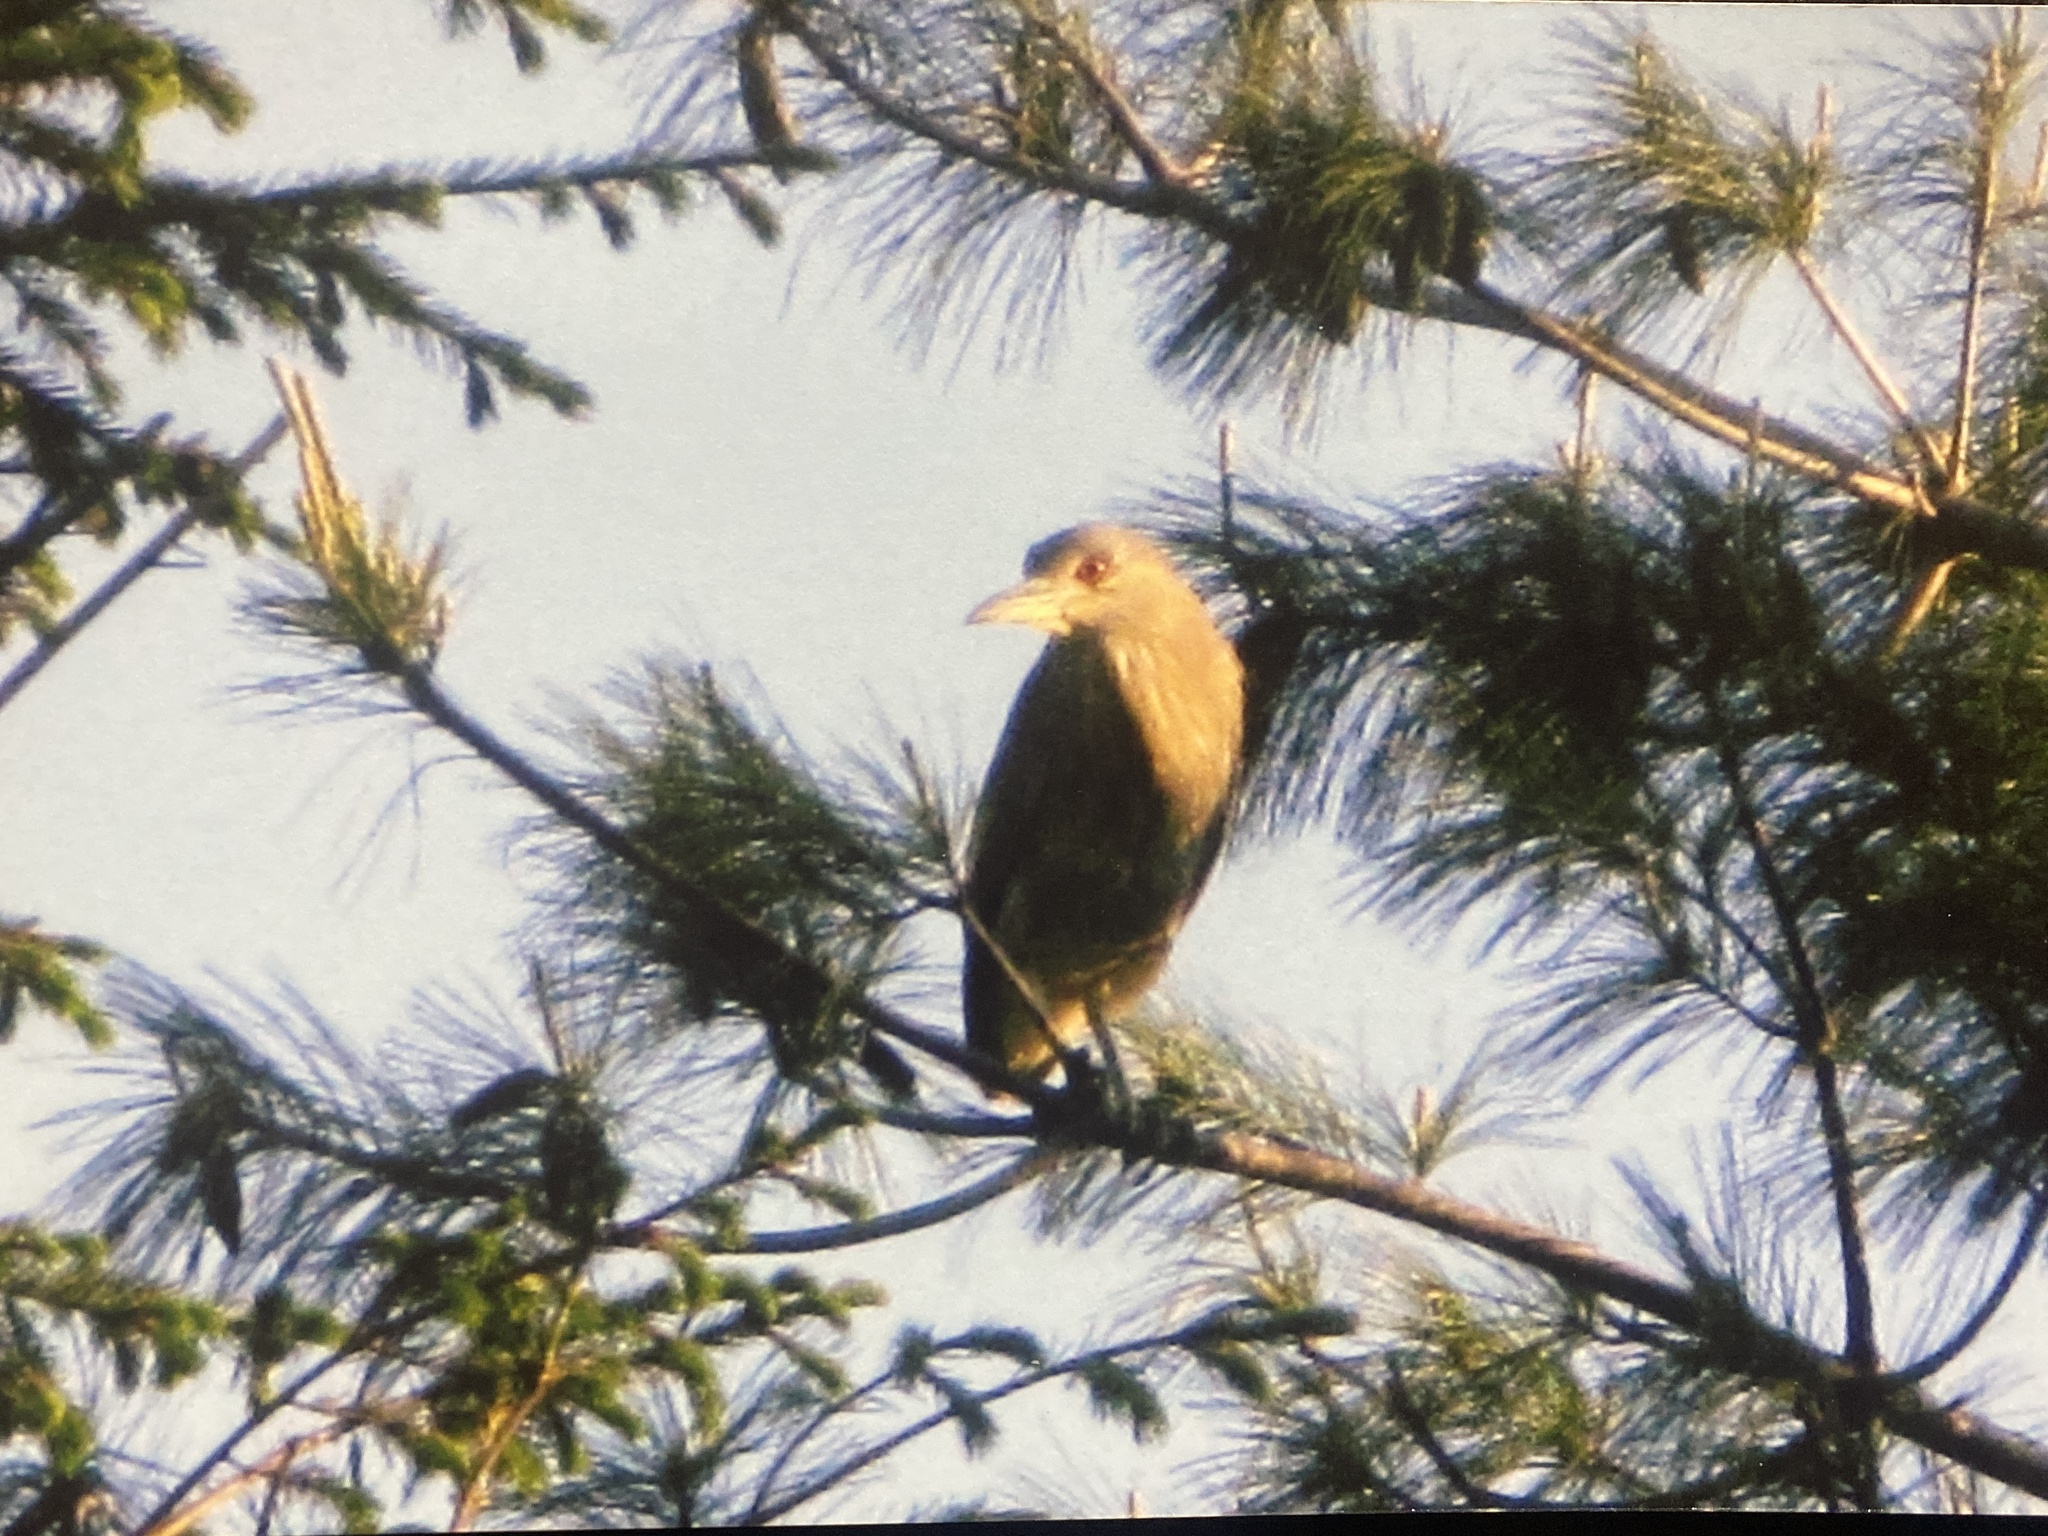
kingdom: Animalia
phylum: Chordata
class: Aves
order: Pelecaniformes
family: Ardeidae
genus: Nycticorax
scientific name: Nycticorax nycticorax
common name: Black-crowned night heron
